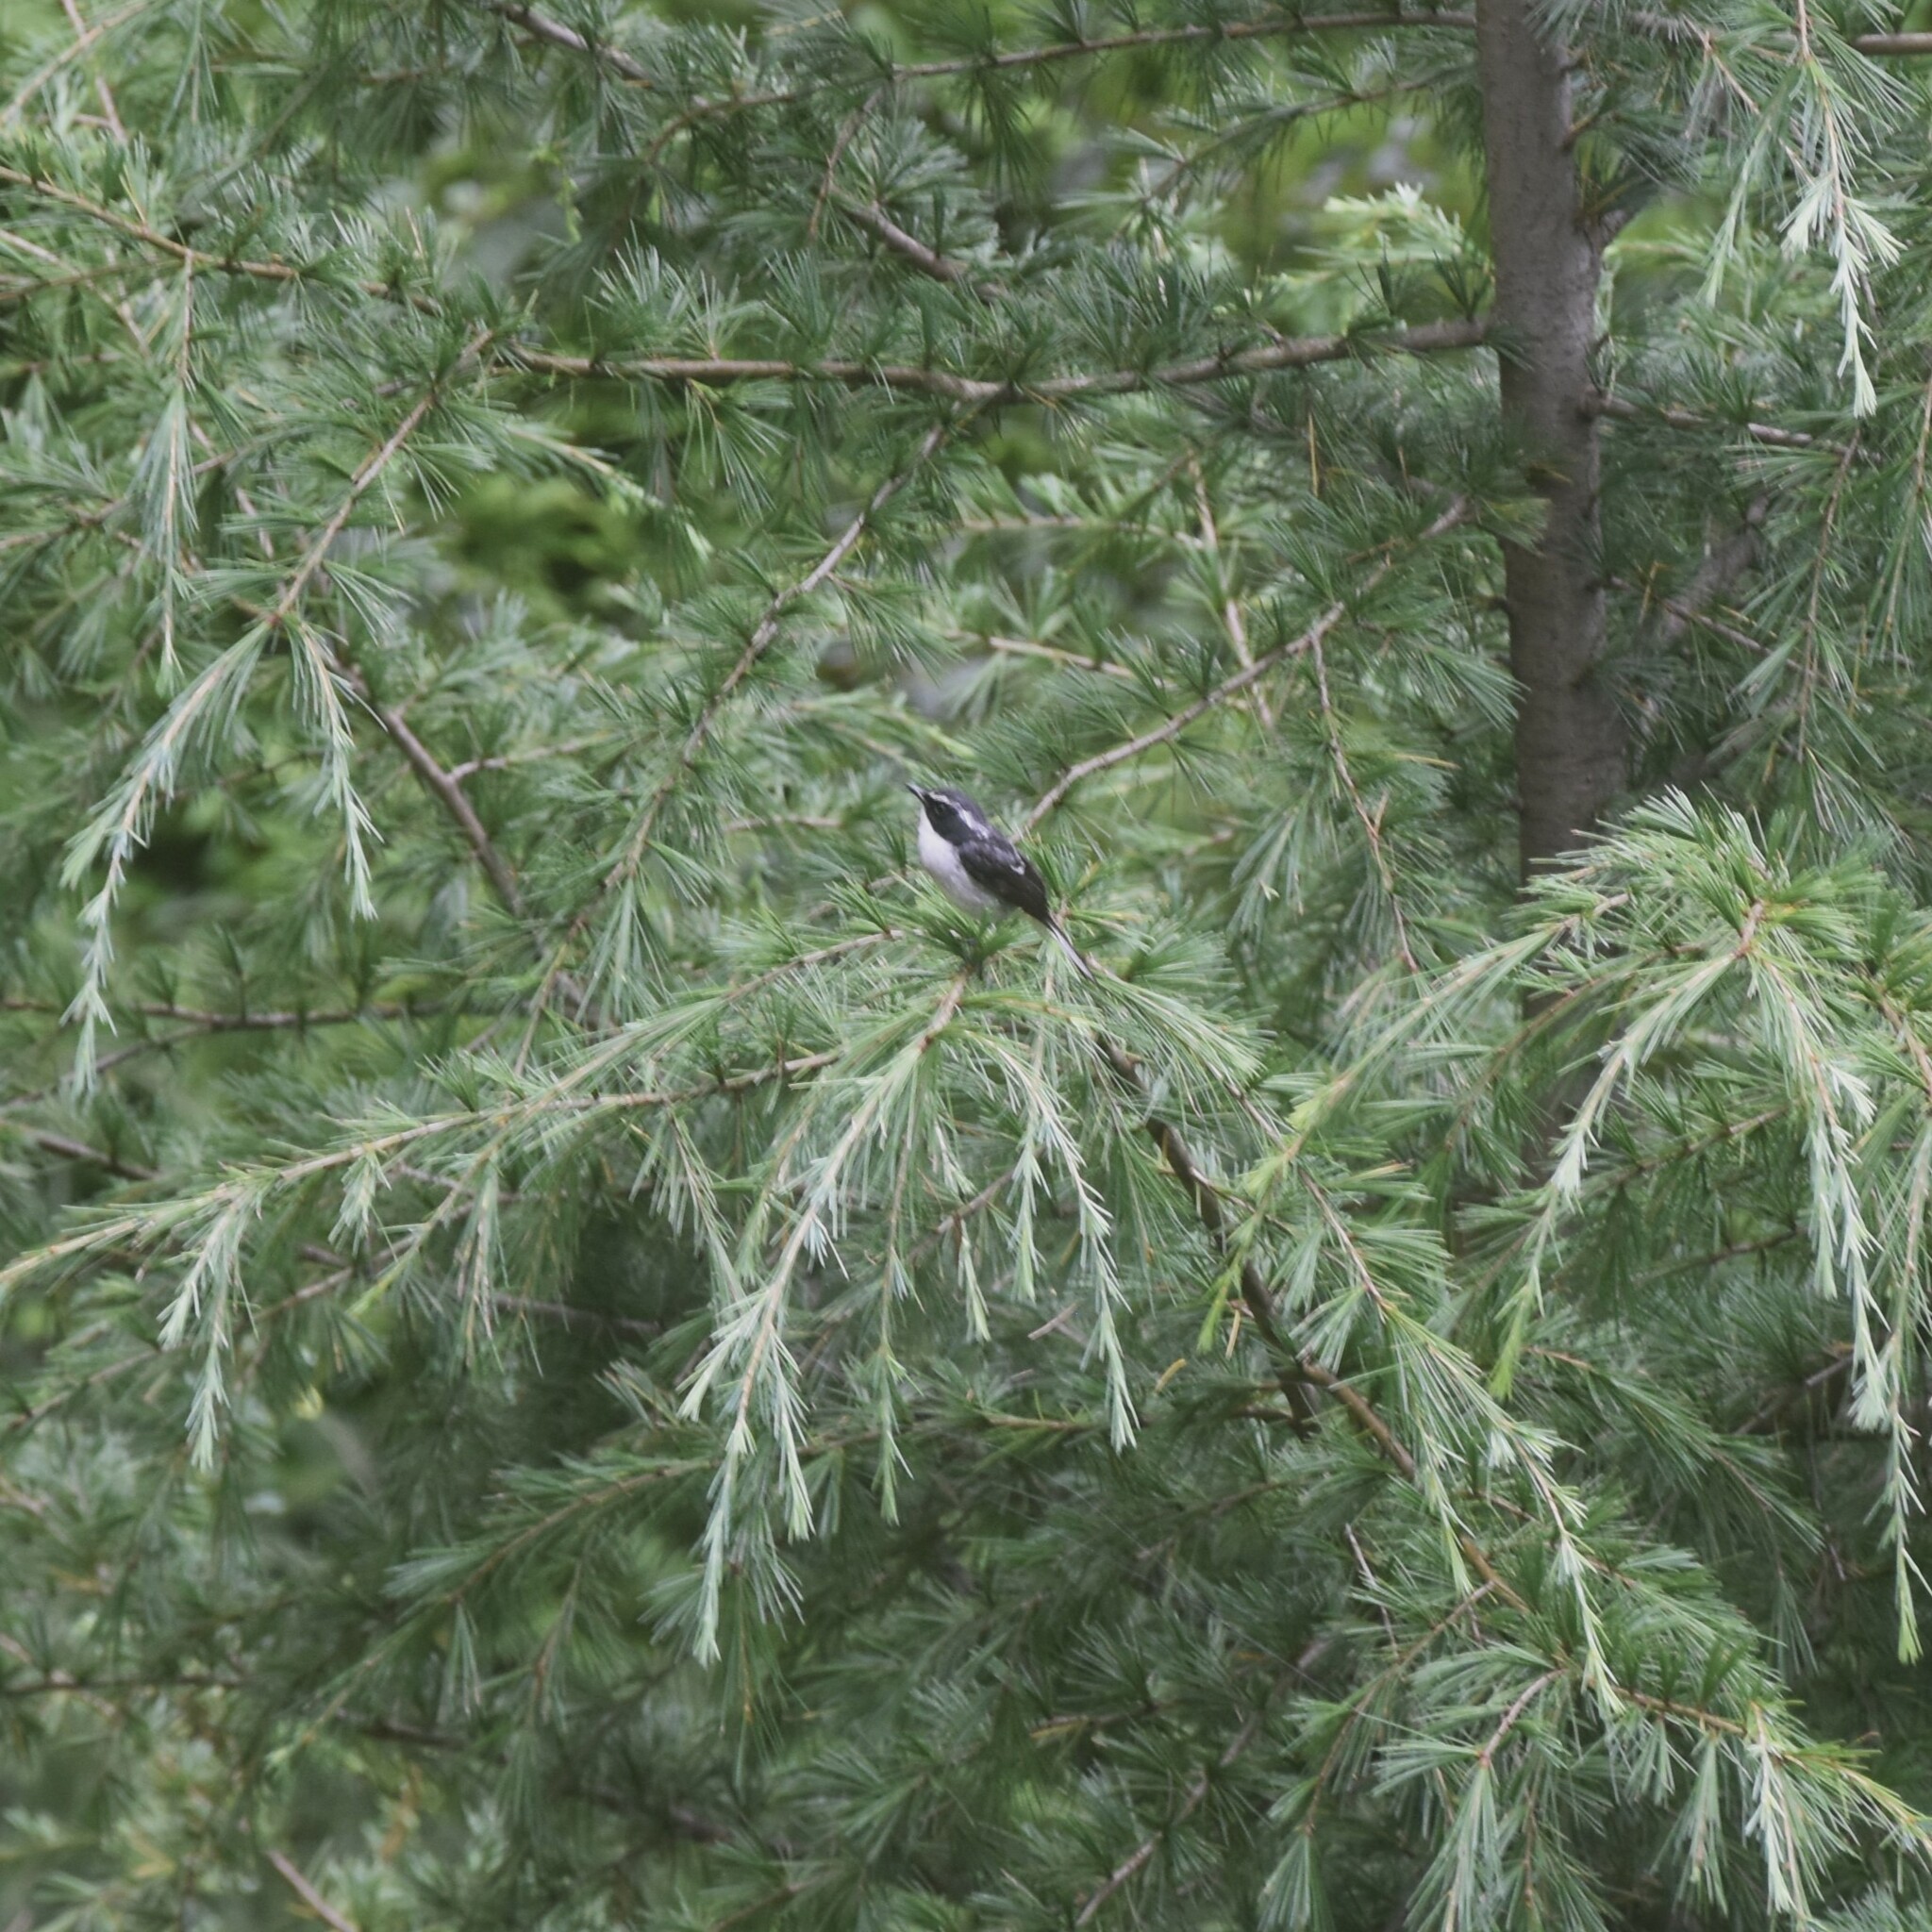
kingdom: Animalia
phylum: Chordata
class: Aves
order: Passeriformes
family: Muscicapidae
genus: Saxicola
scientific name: Saxicola ferreus
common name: Grey bush chat
